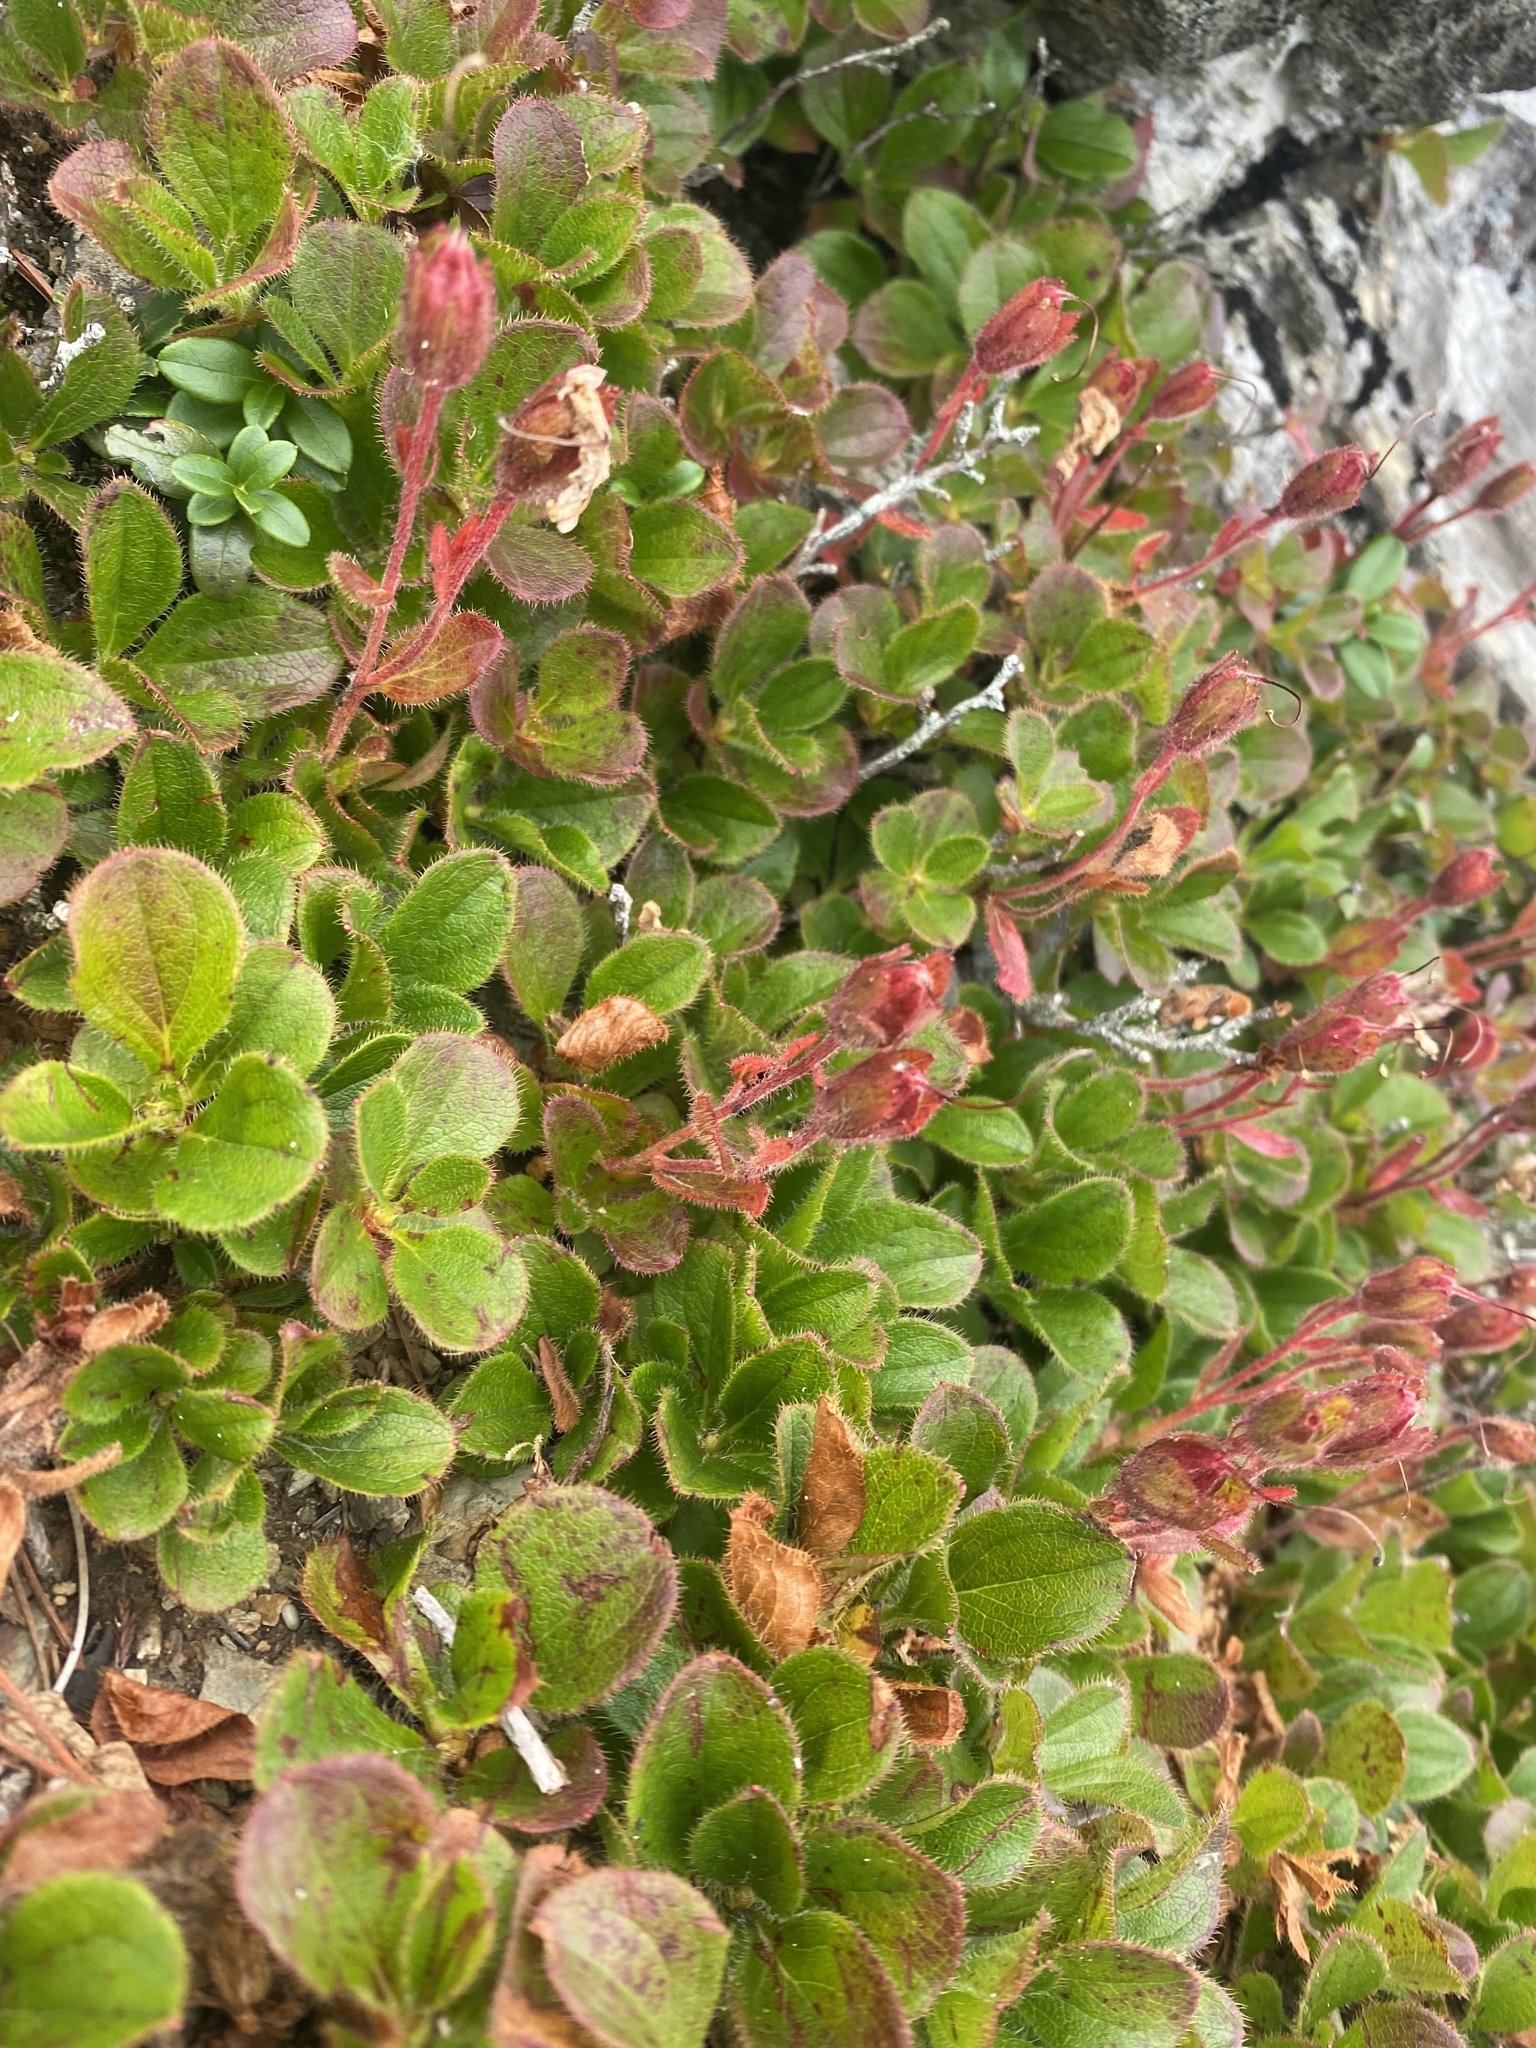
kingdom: Plantae
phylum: Tracheophyta
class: Magnoliopsida
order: Ericales
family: Ericaceae
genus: Rhododendron
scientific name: Rhododendron camtschaticum
